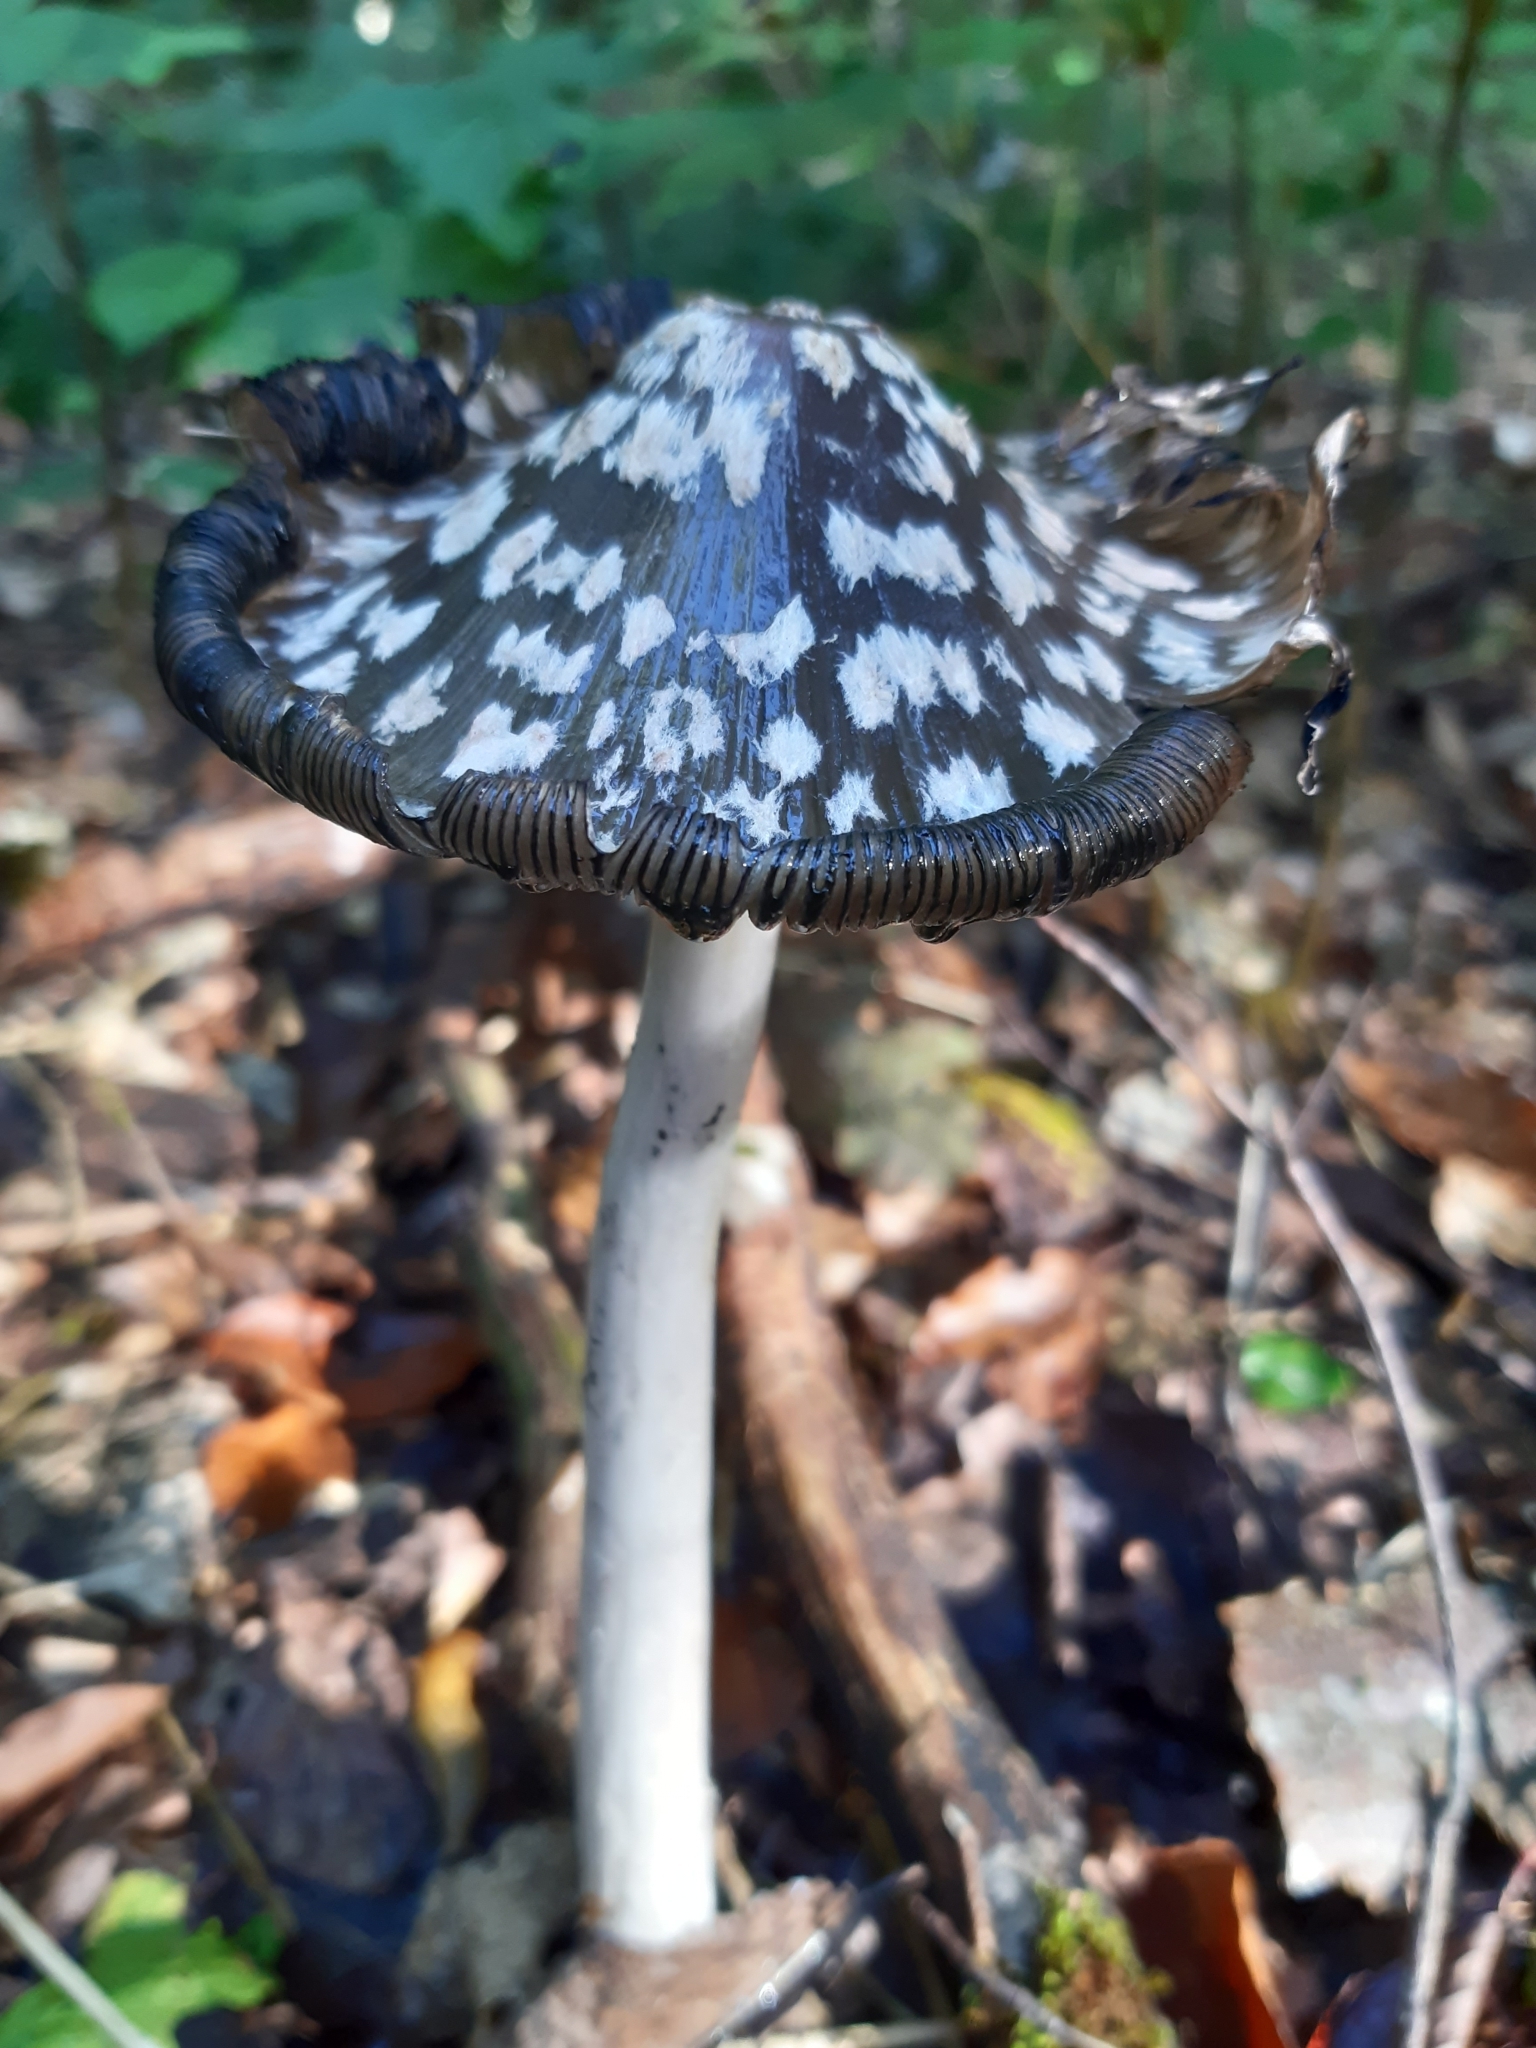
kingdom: Fungi
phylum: Basidiomycota
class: Agaricomycetes
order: Agaricales
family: Psathyrellaceae
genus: Coprinopsis
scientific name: Coprinopsis picacea
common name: Magpie inkcap
